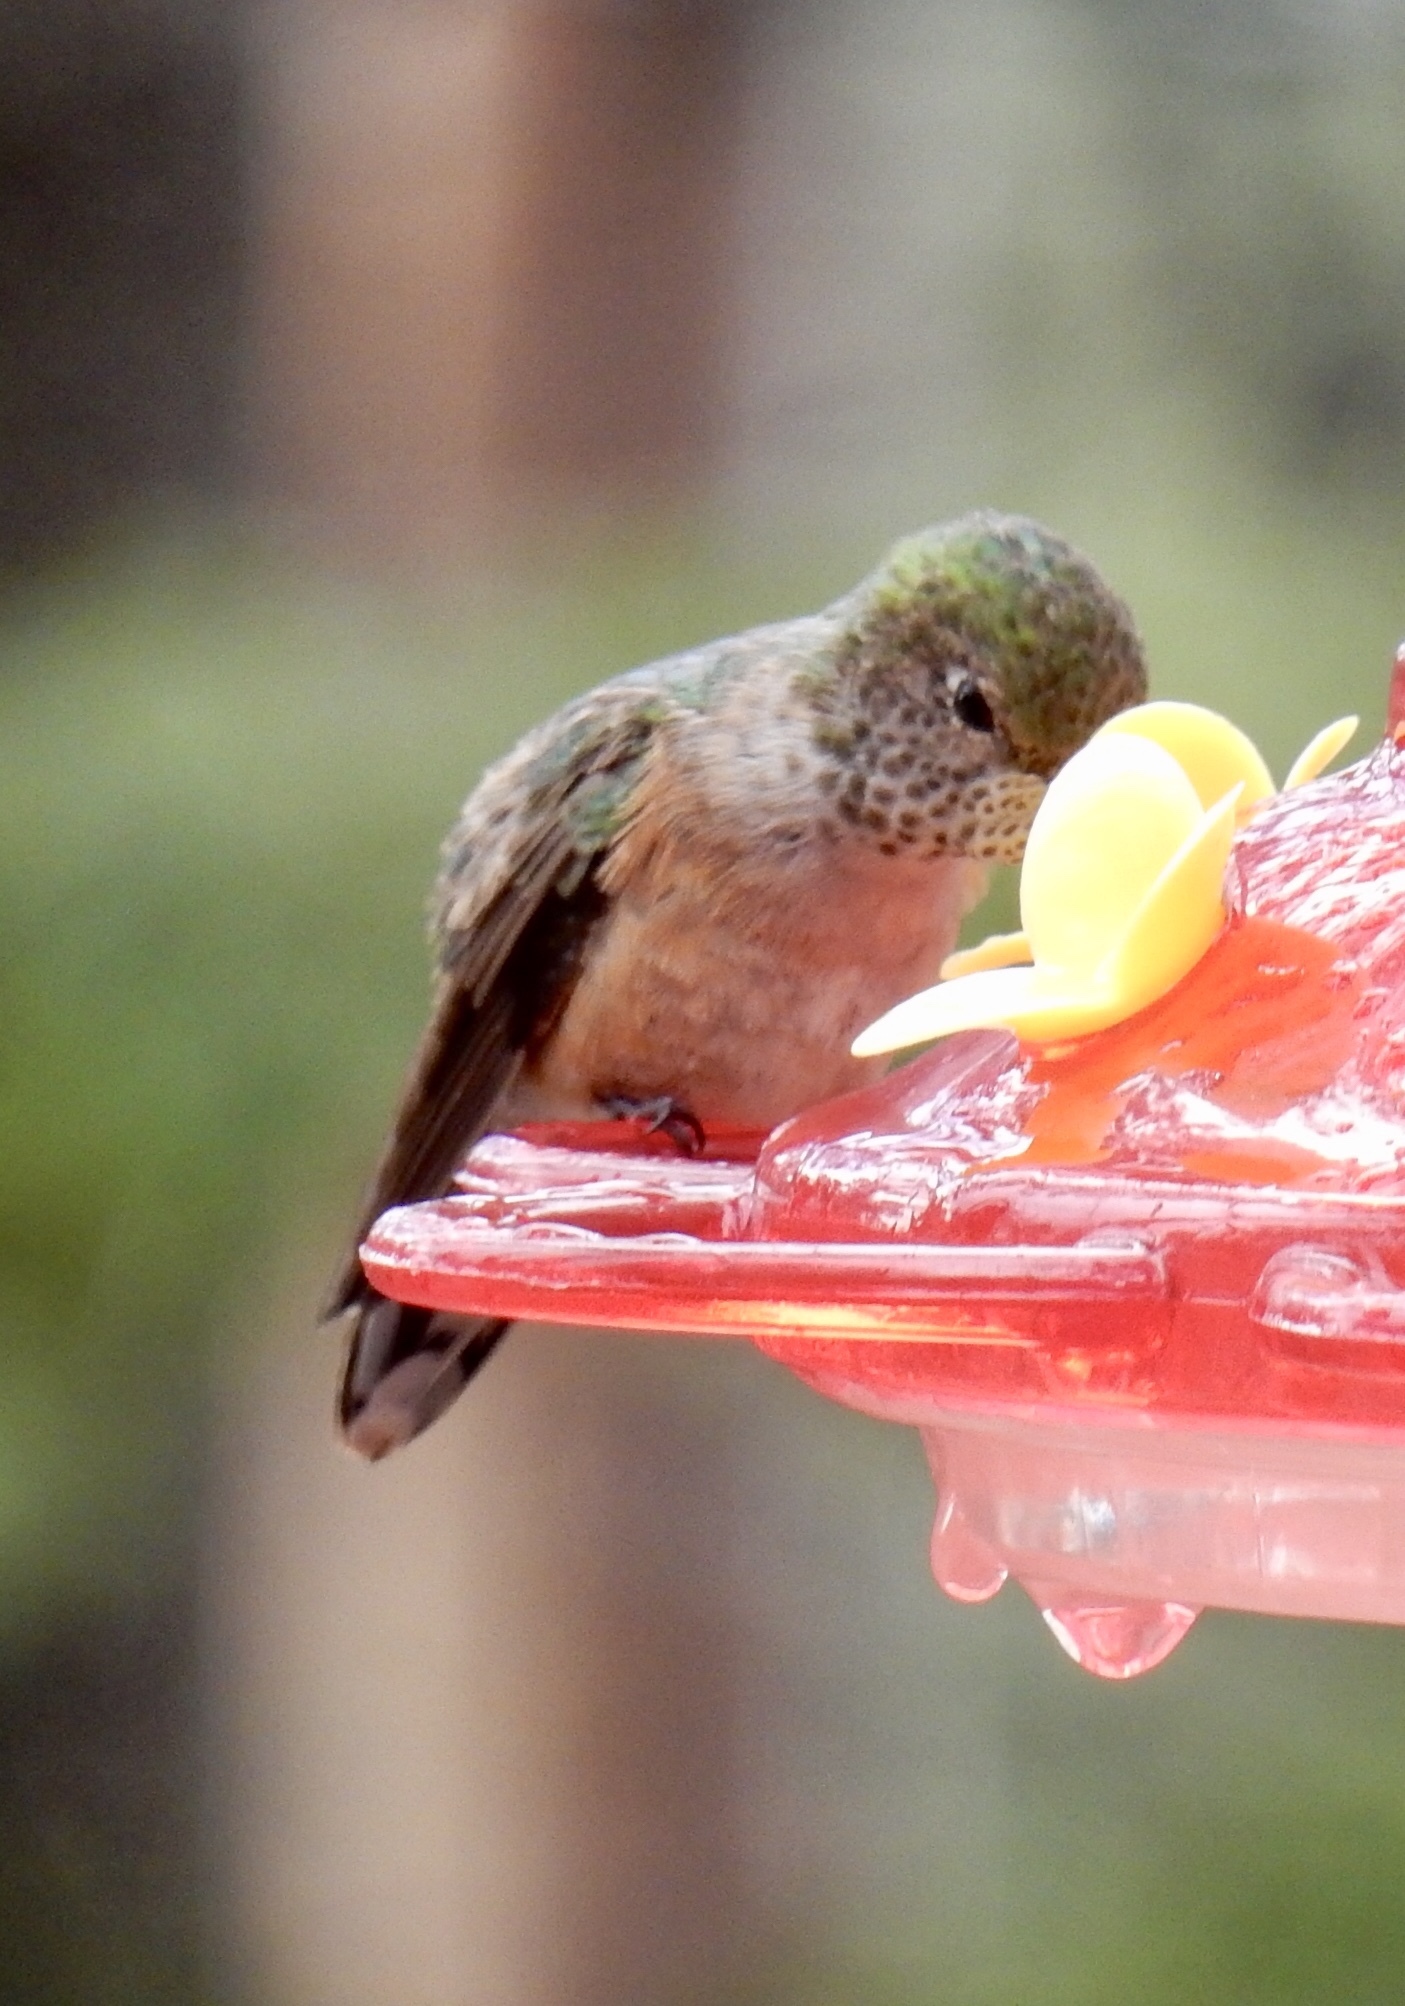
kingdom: Animalia
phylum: Chordata
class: Aves
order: Apodiformes
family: Trochilidae
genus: Selasphorus
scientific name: Selasphorus platycercus
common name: Broad-tailed hummingbird
